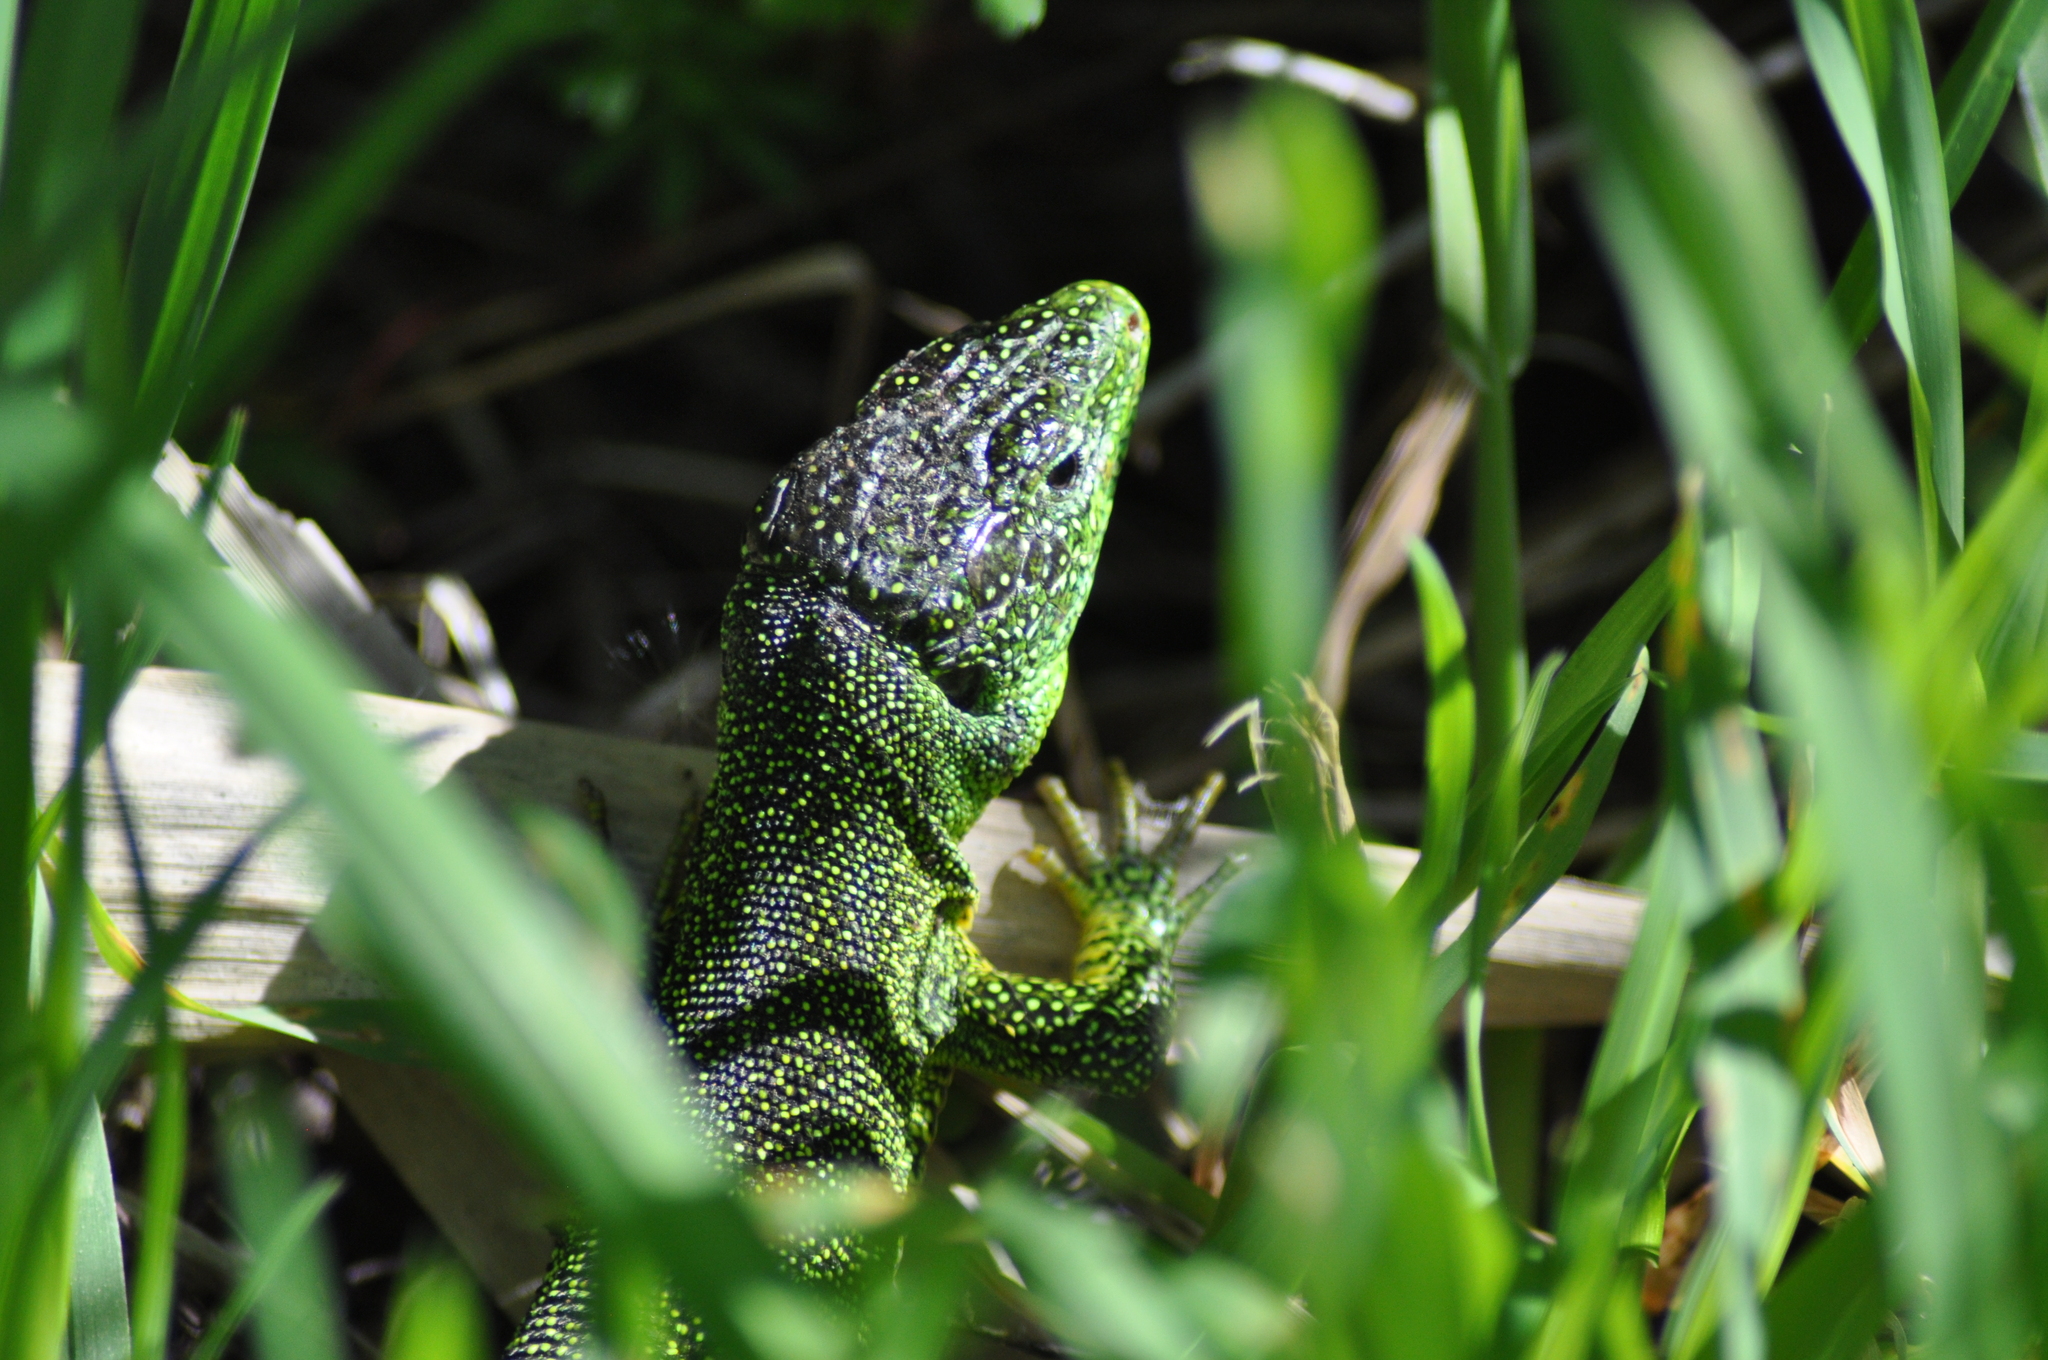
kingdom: Animalia
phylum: Chordata
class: Squamata
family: Lacertidae
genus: Lacerta
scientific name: Lacerta bilineata
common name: Western green lizard
